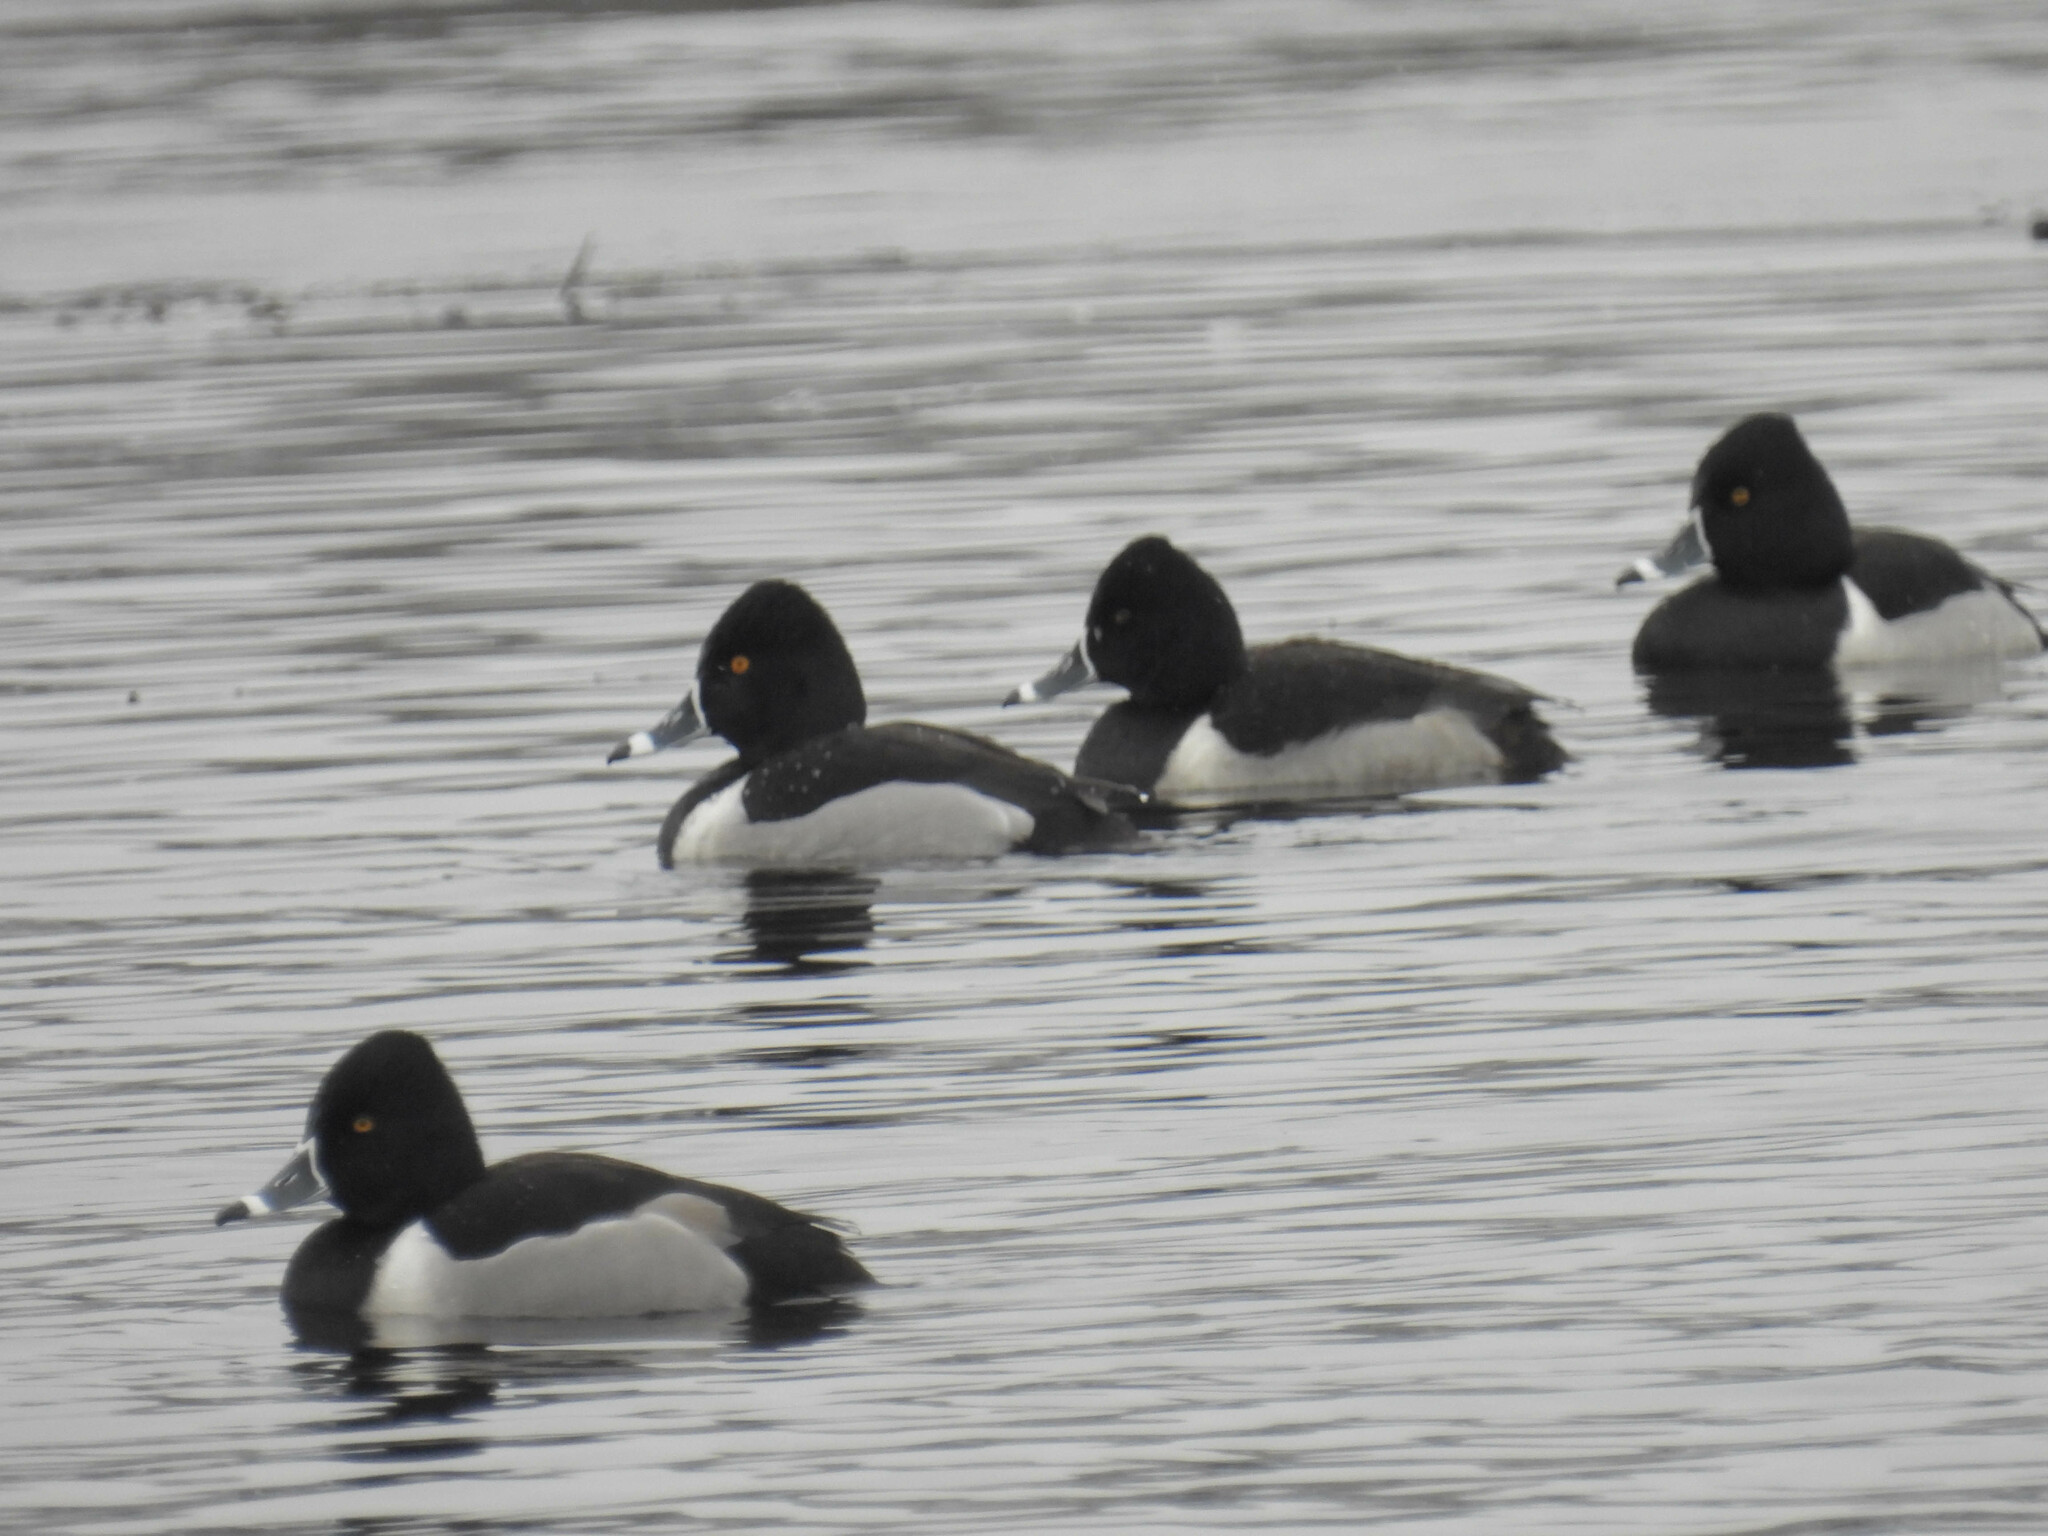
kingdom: Animalia
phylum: Chordata
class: Aves
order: Anseriformes
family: Anatidae
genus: Aythya
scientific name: Aythya collaris
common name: Ring-necked duck
